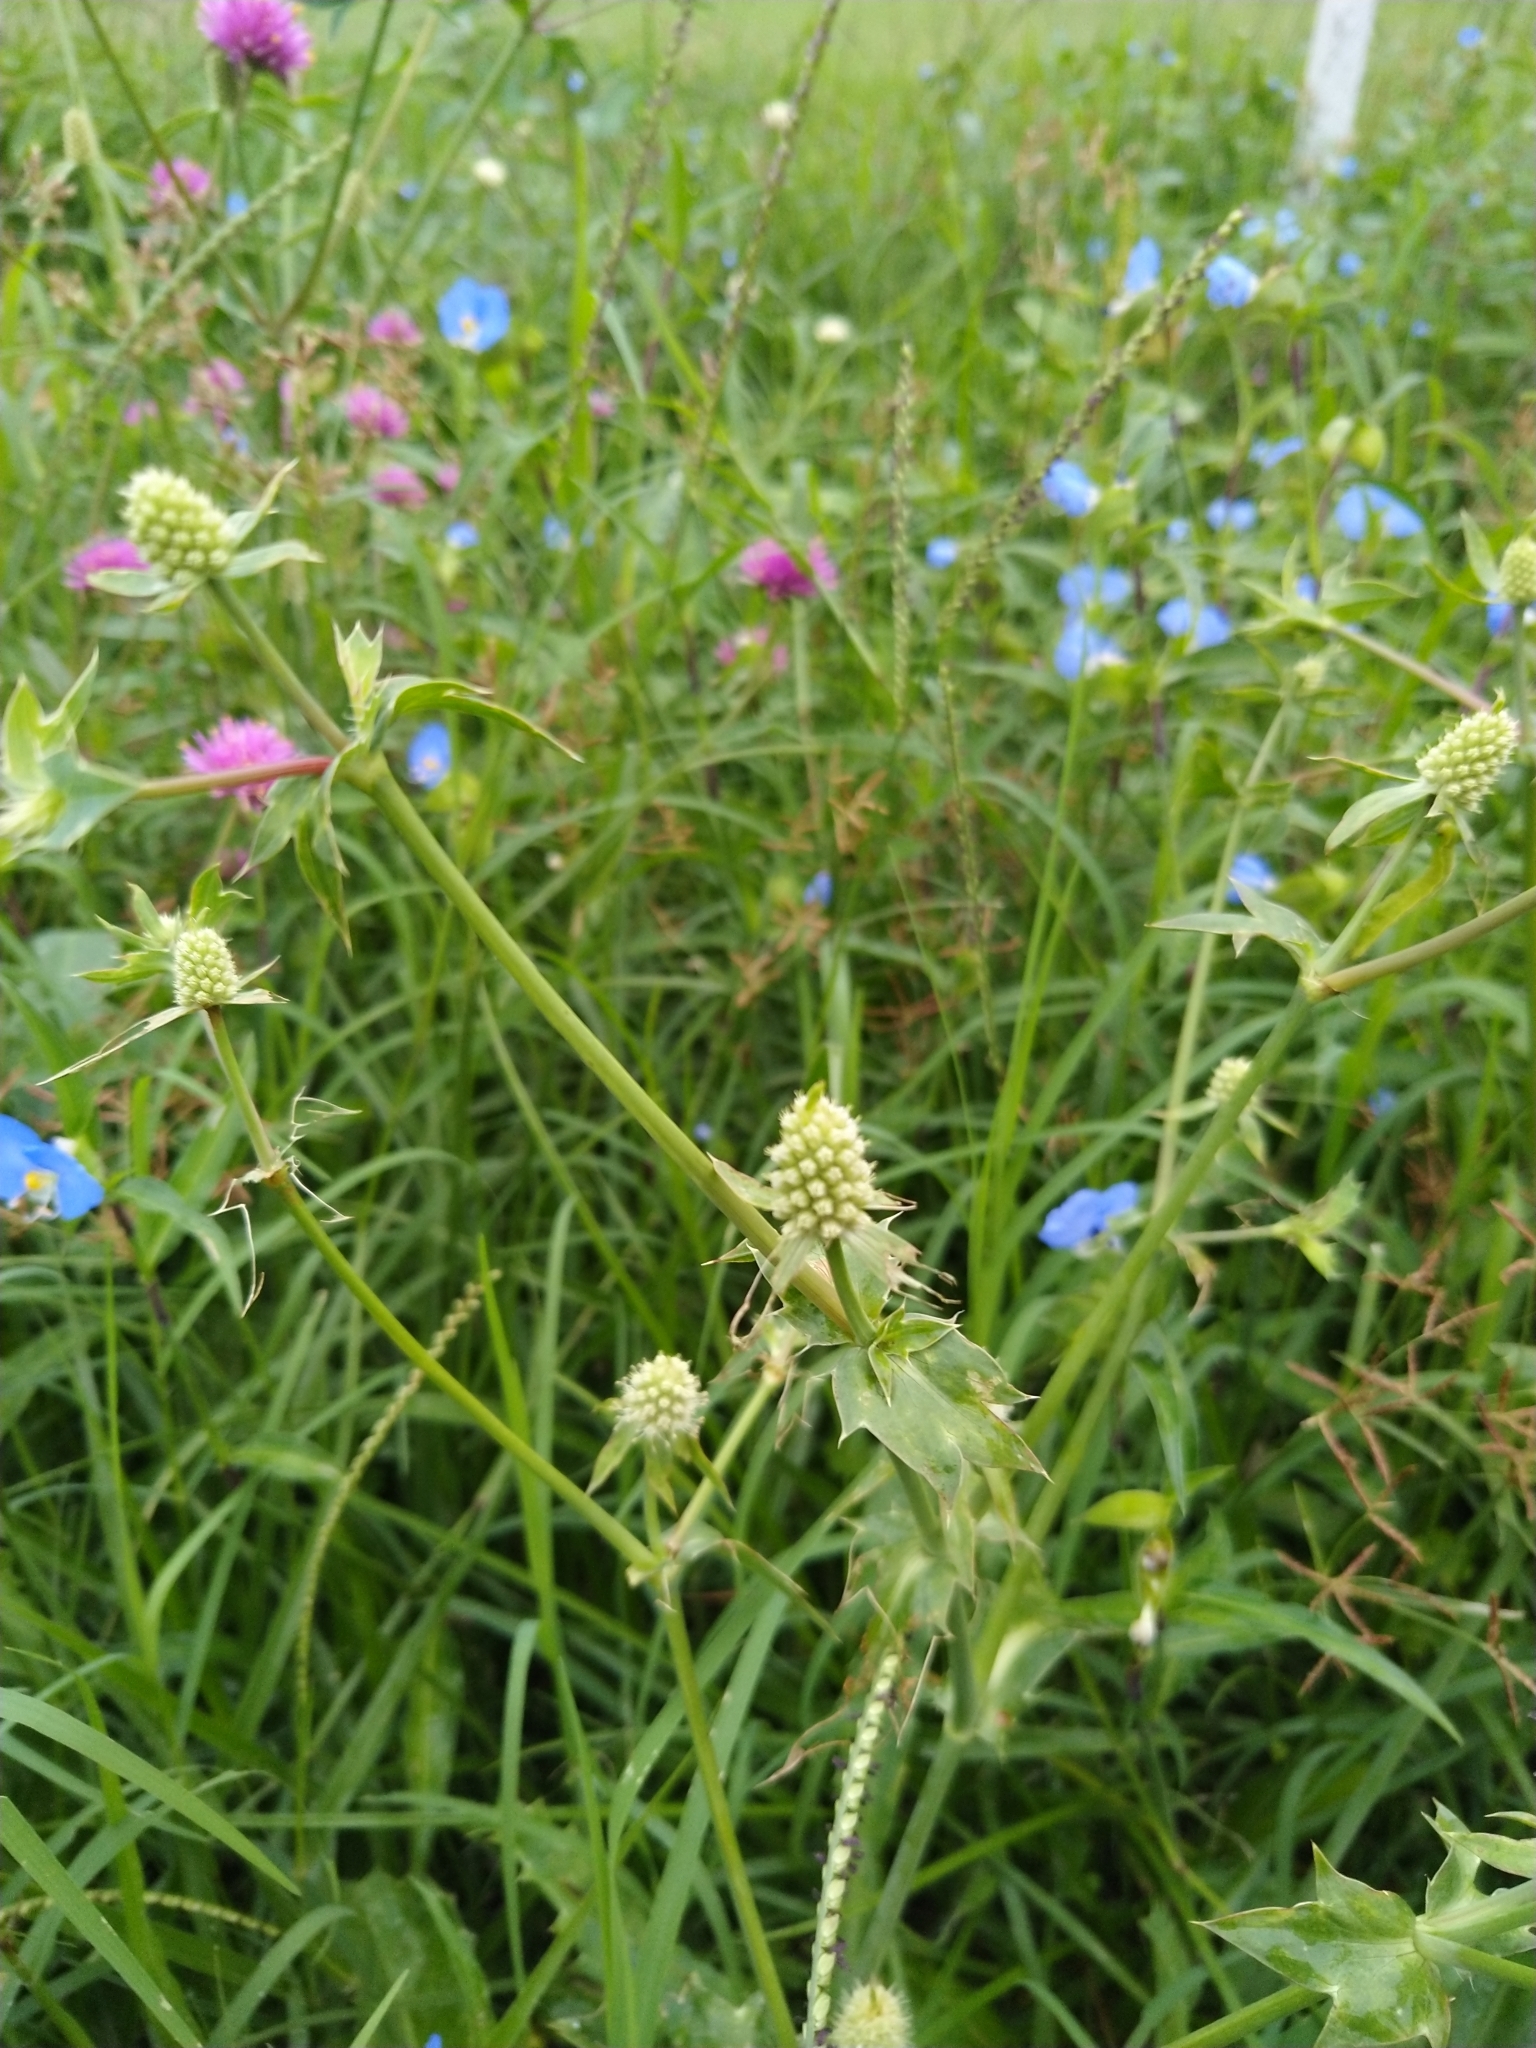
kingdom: Plantae
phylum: Tracheophyta
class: Magnoliopsida
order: Apiales
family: Apiaceae
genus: Eryngium
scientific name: Eryngium coronatum
